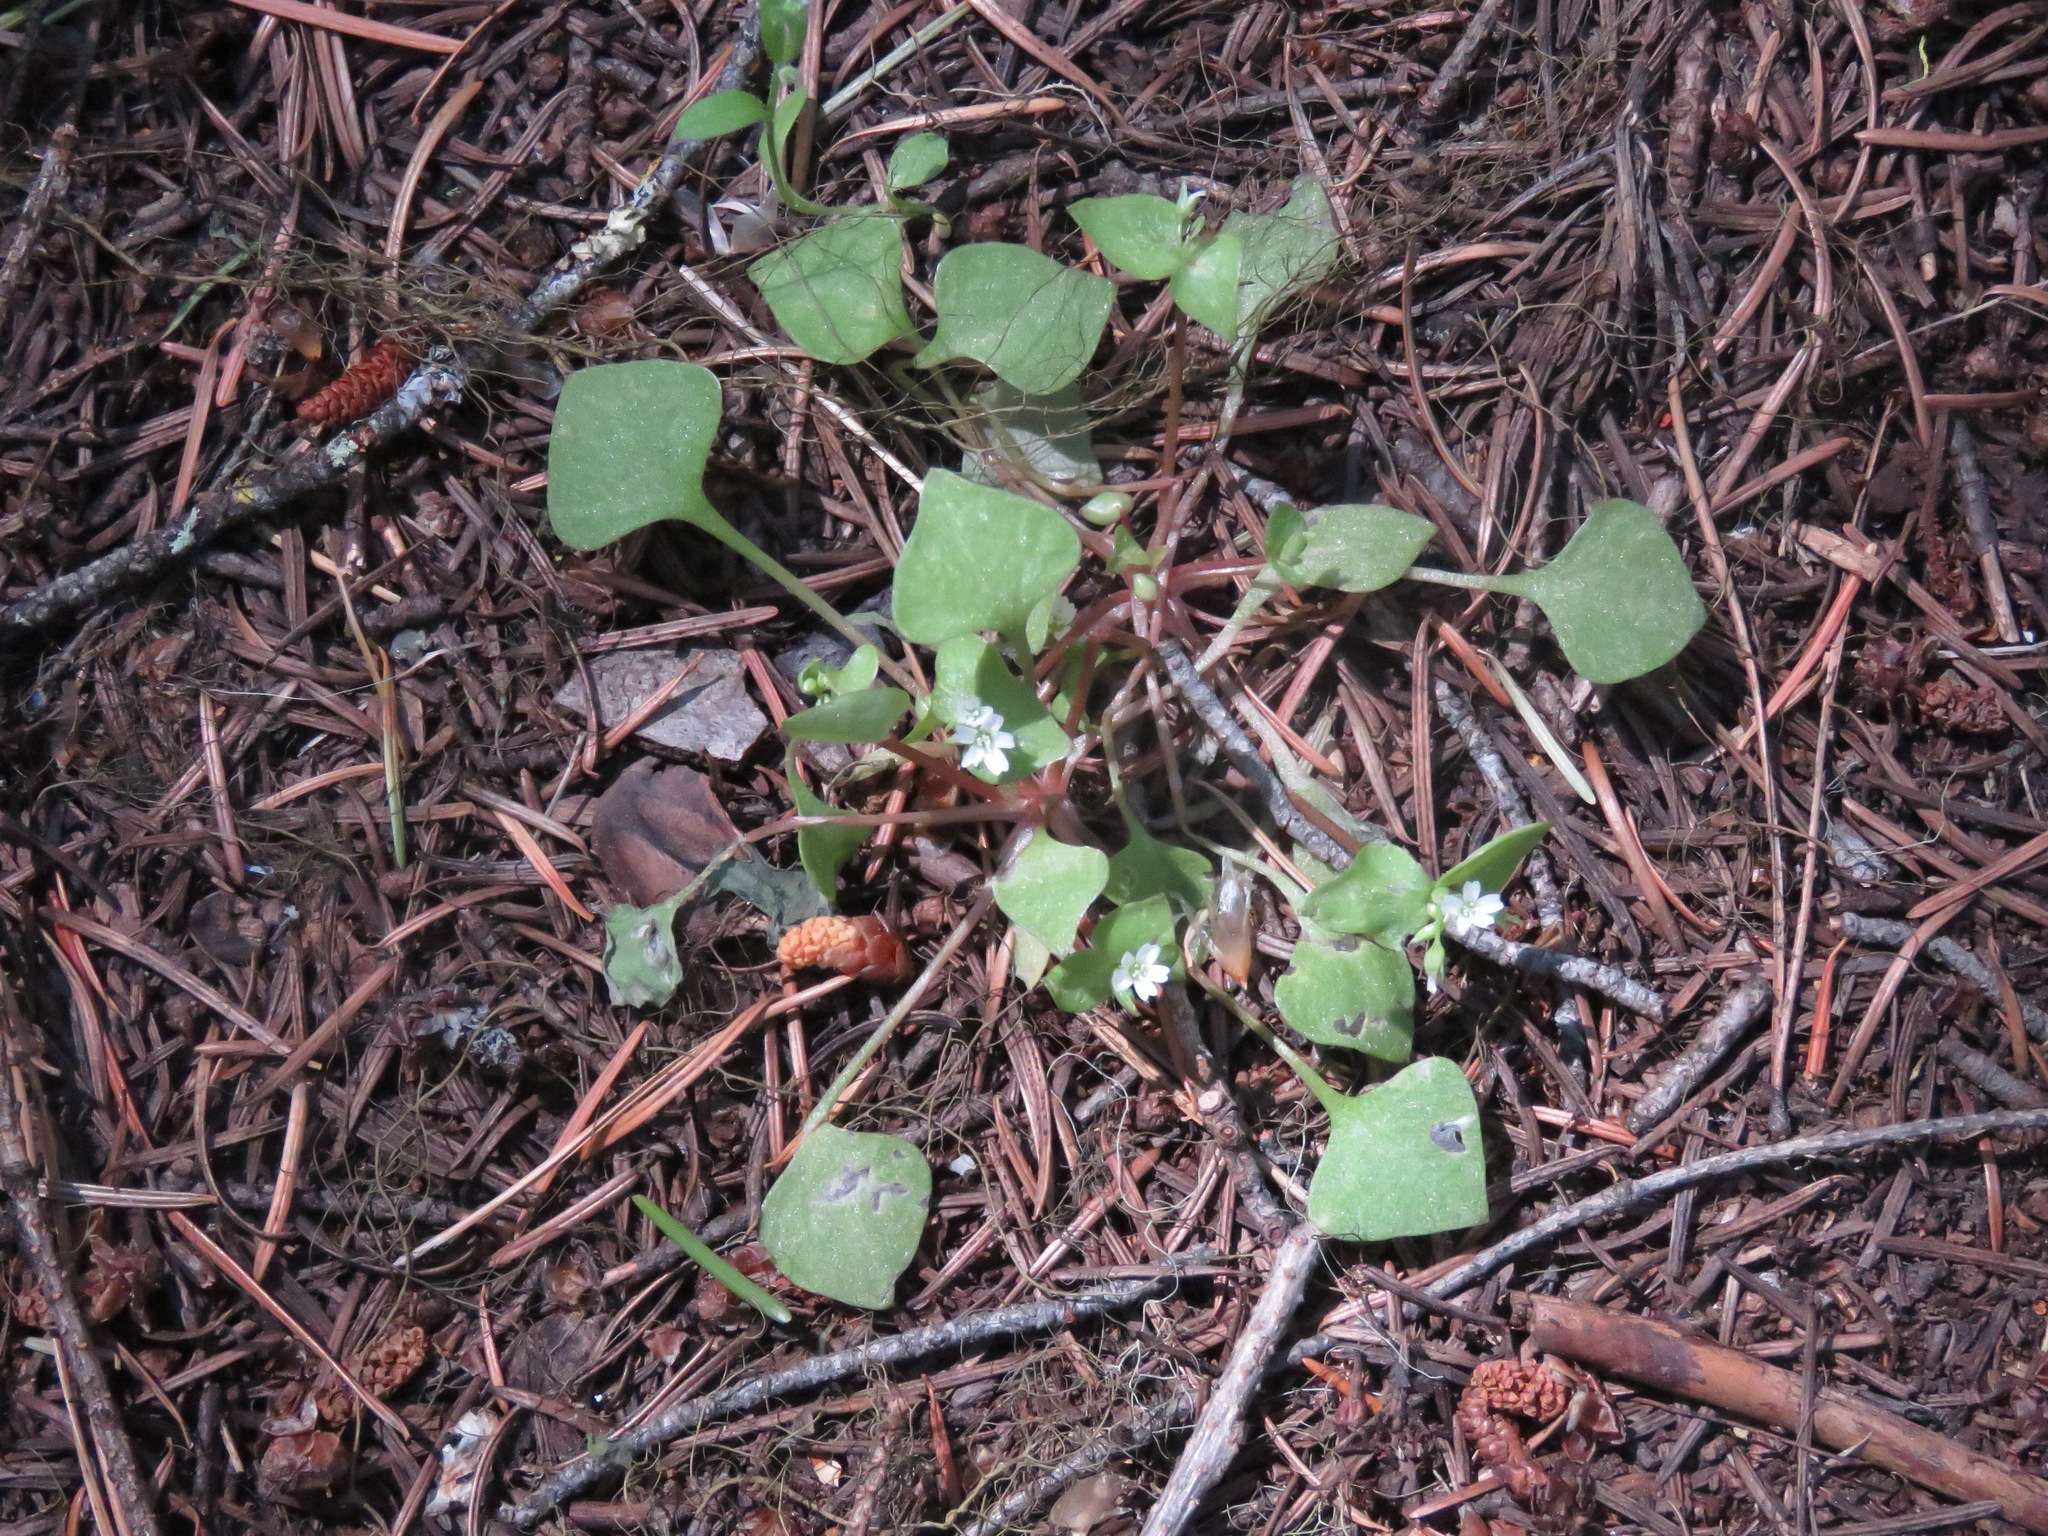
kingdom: Plantae
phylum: Tracheophyta
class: Magnoliopsida
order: Caryophyllales
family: Montiaceae
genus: Claytonia
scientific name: Claytonia rubra
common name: Erubescent miner's-lettuce
